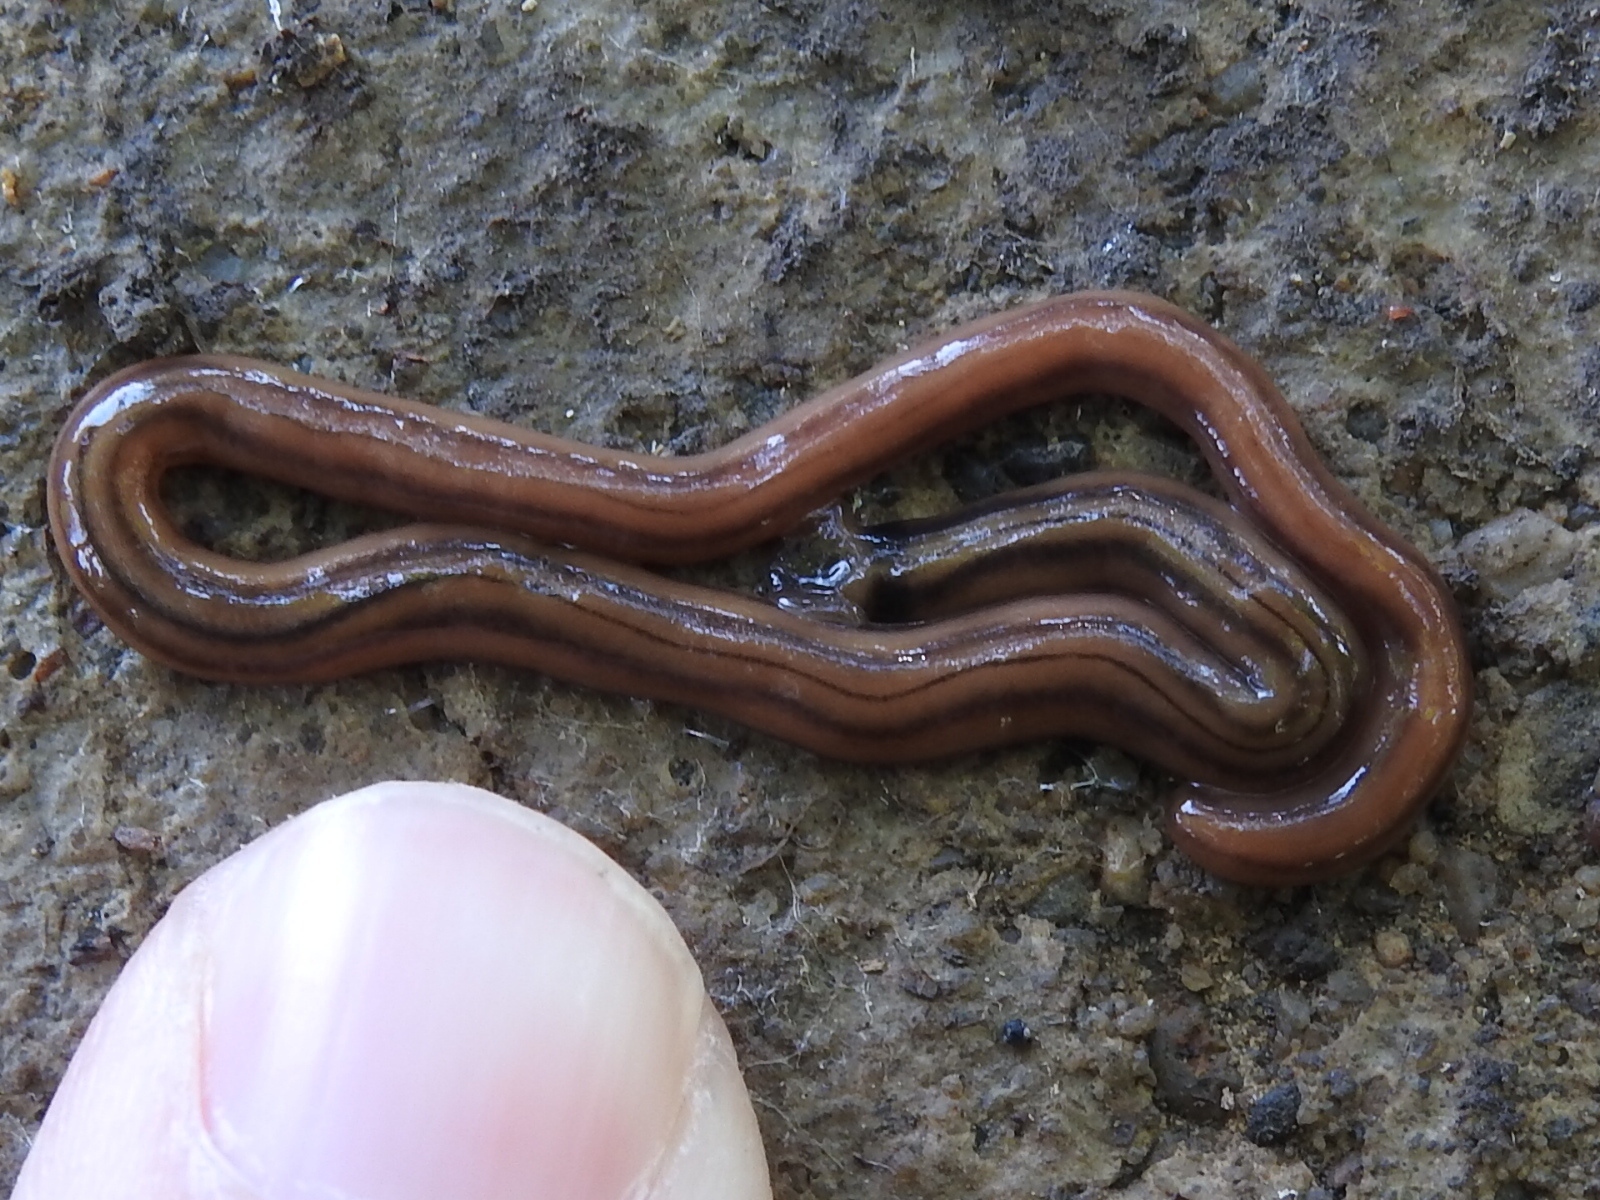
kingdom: Animalia
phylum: Platyhelminthes
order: Tricladida
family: Geoplanidae
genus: Bipalium
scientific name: Bipalium kewense
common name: Hammerhead flatworm
